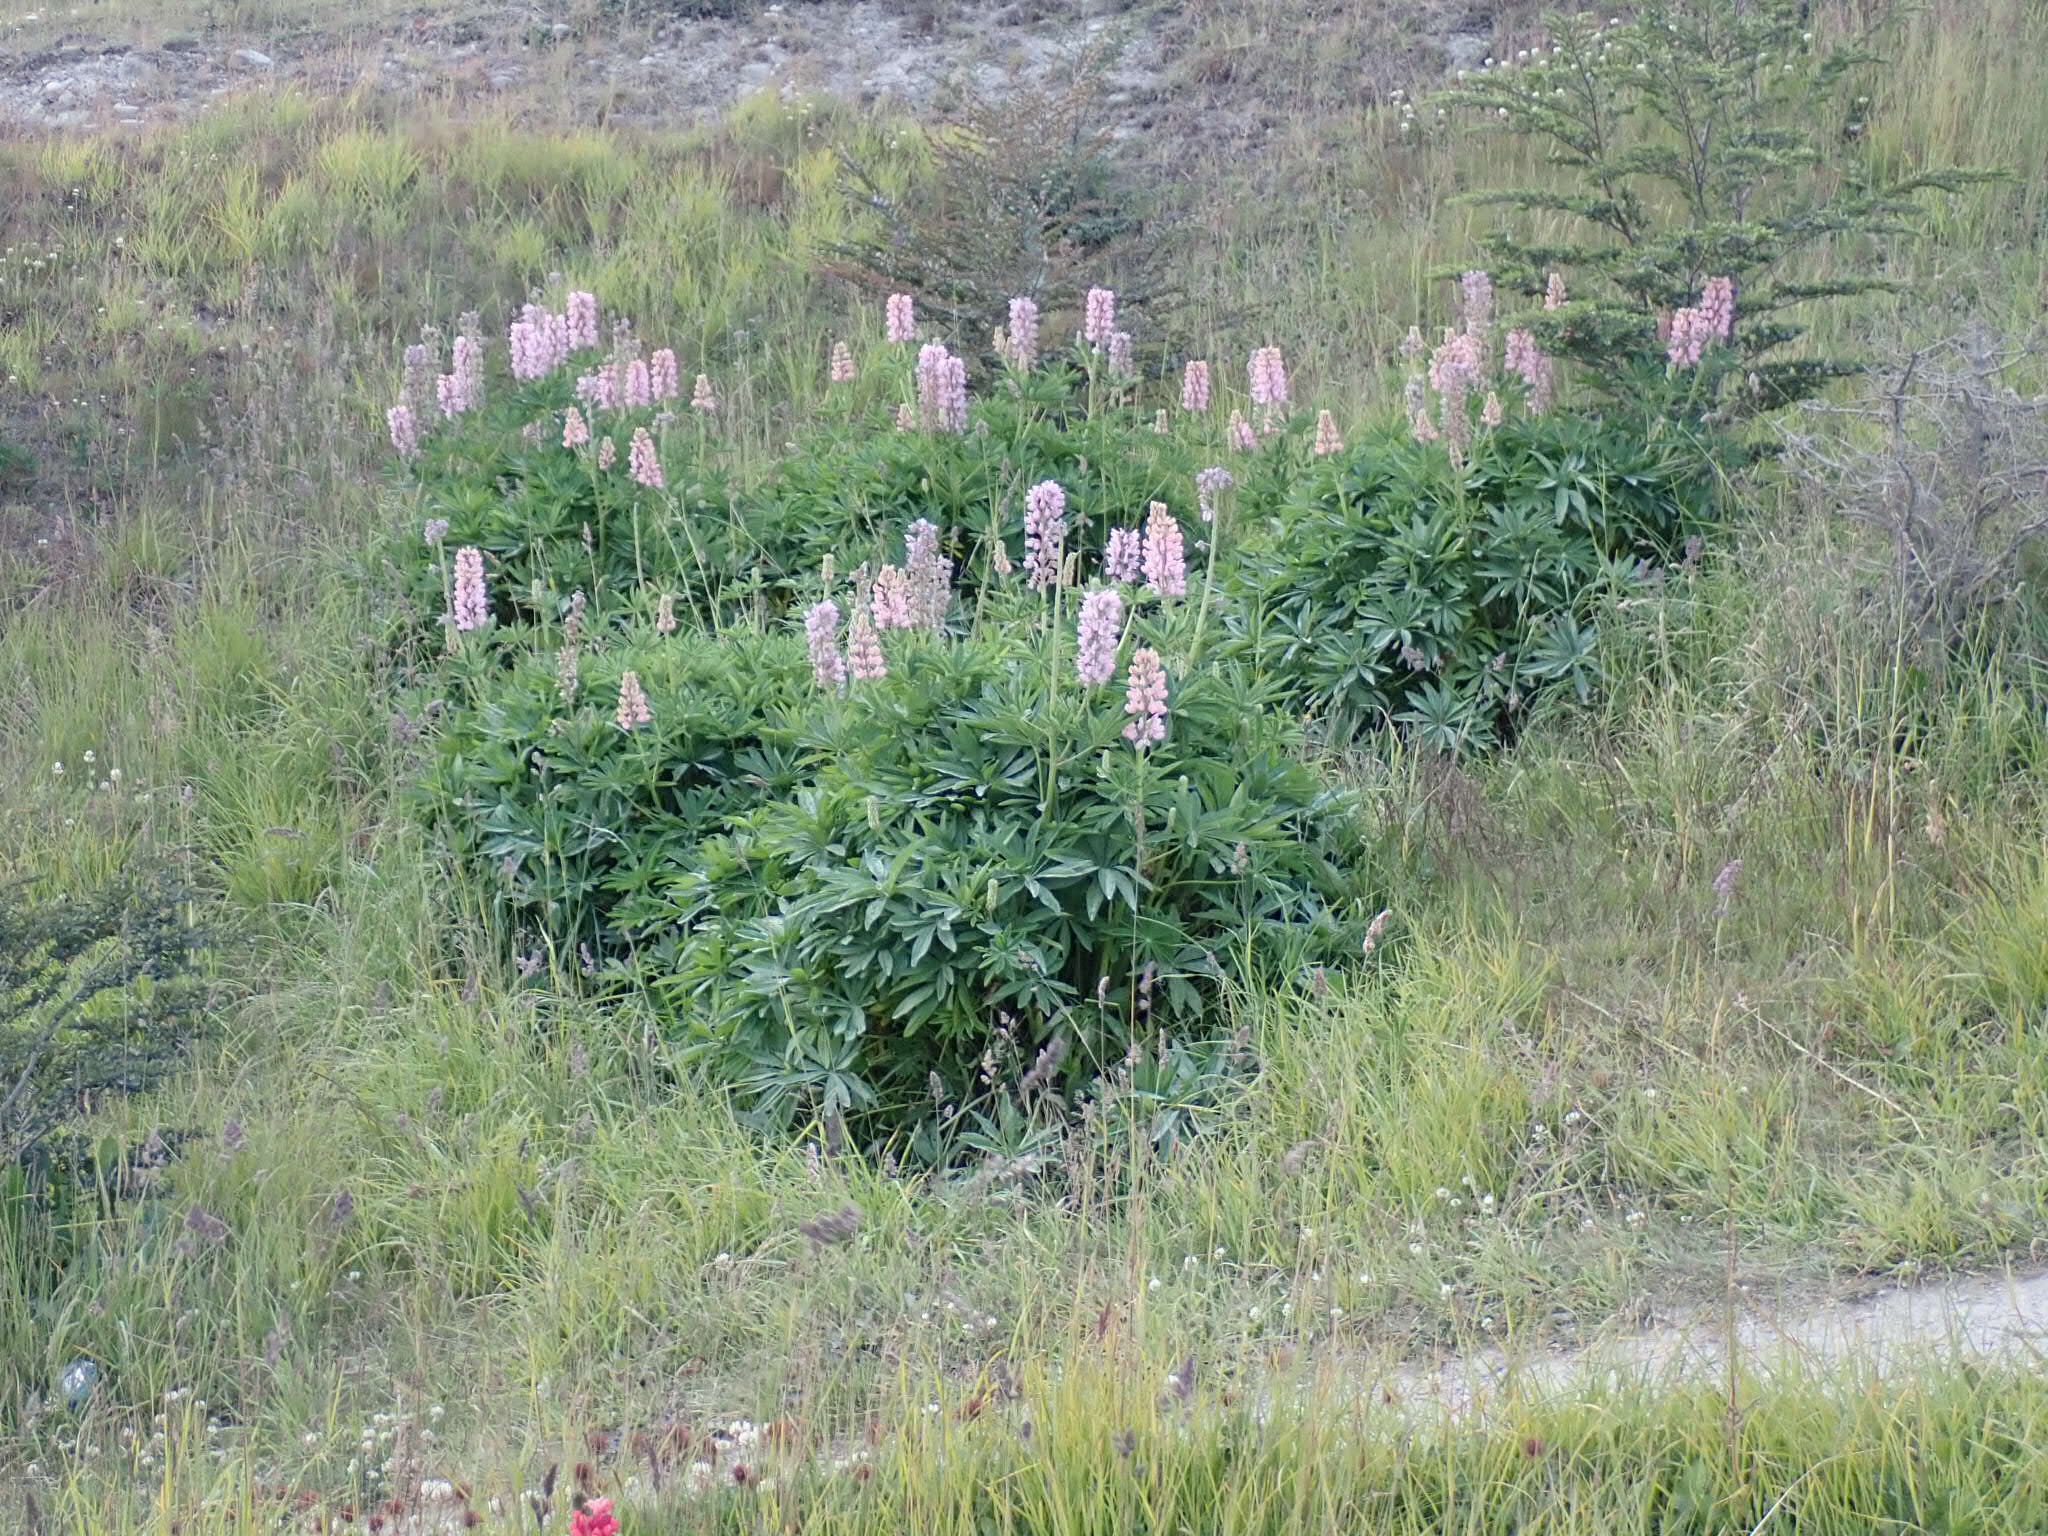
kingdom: Plantae
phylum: Tracheophyta
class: Magnoliopsida
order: Fabales
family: Fabaceae
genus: Lupinus
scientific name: Lupinus polyphyllus
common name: Garden lupin
